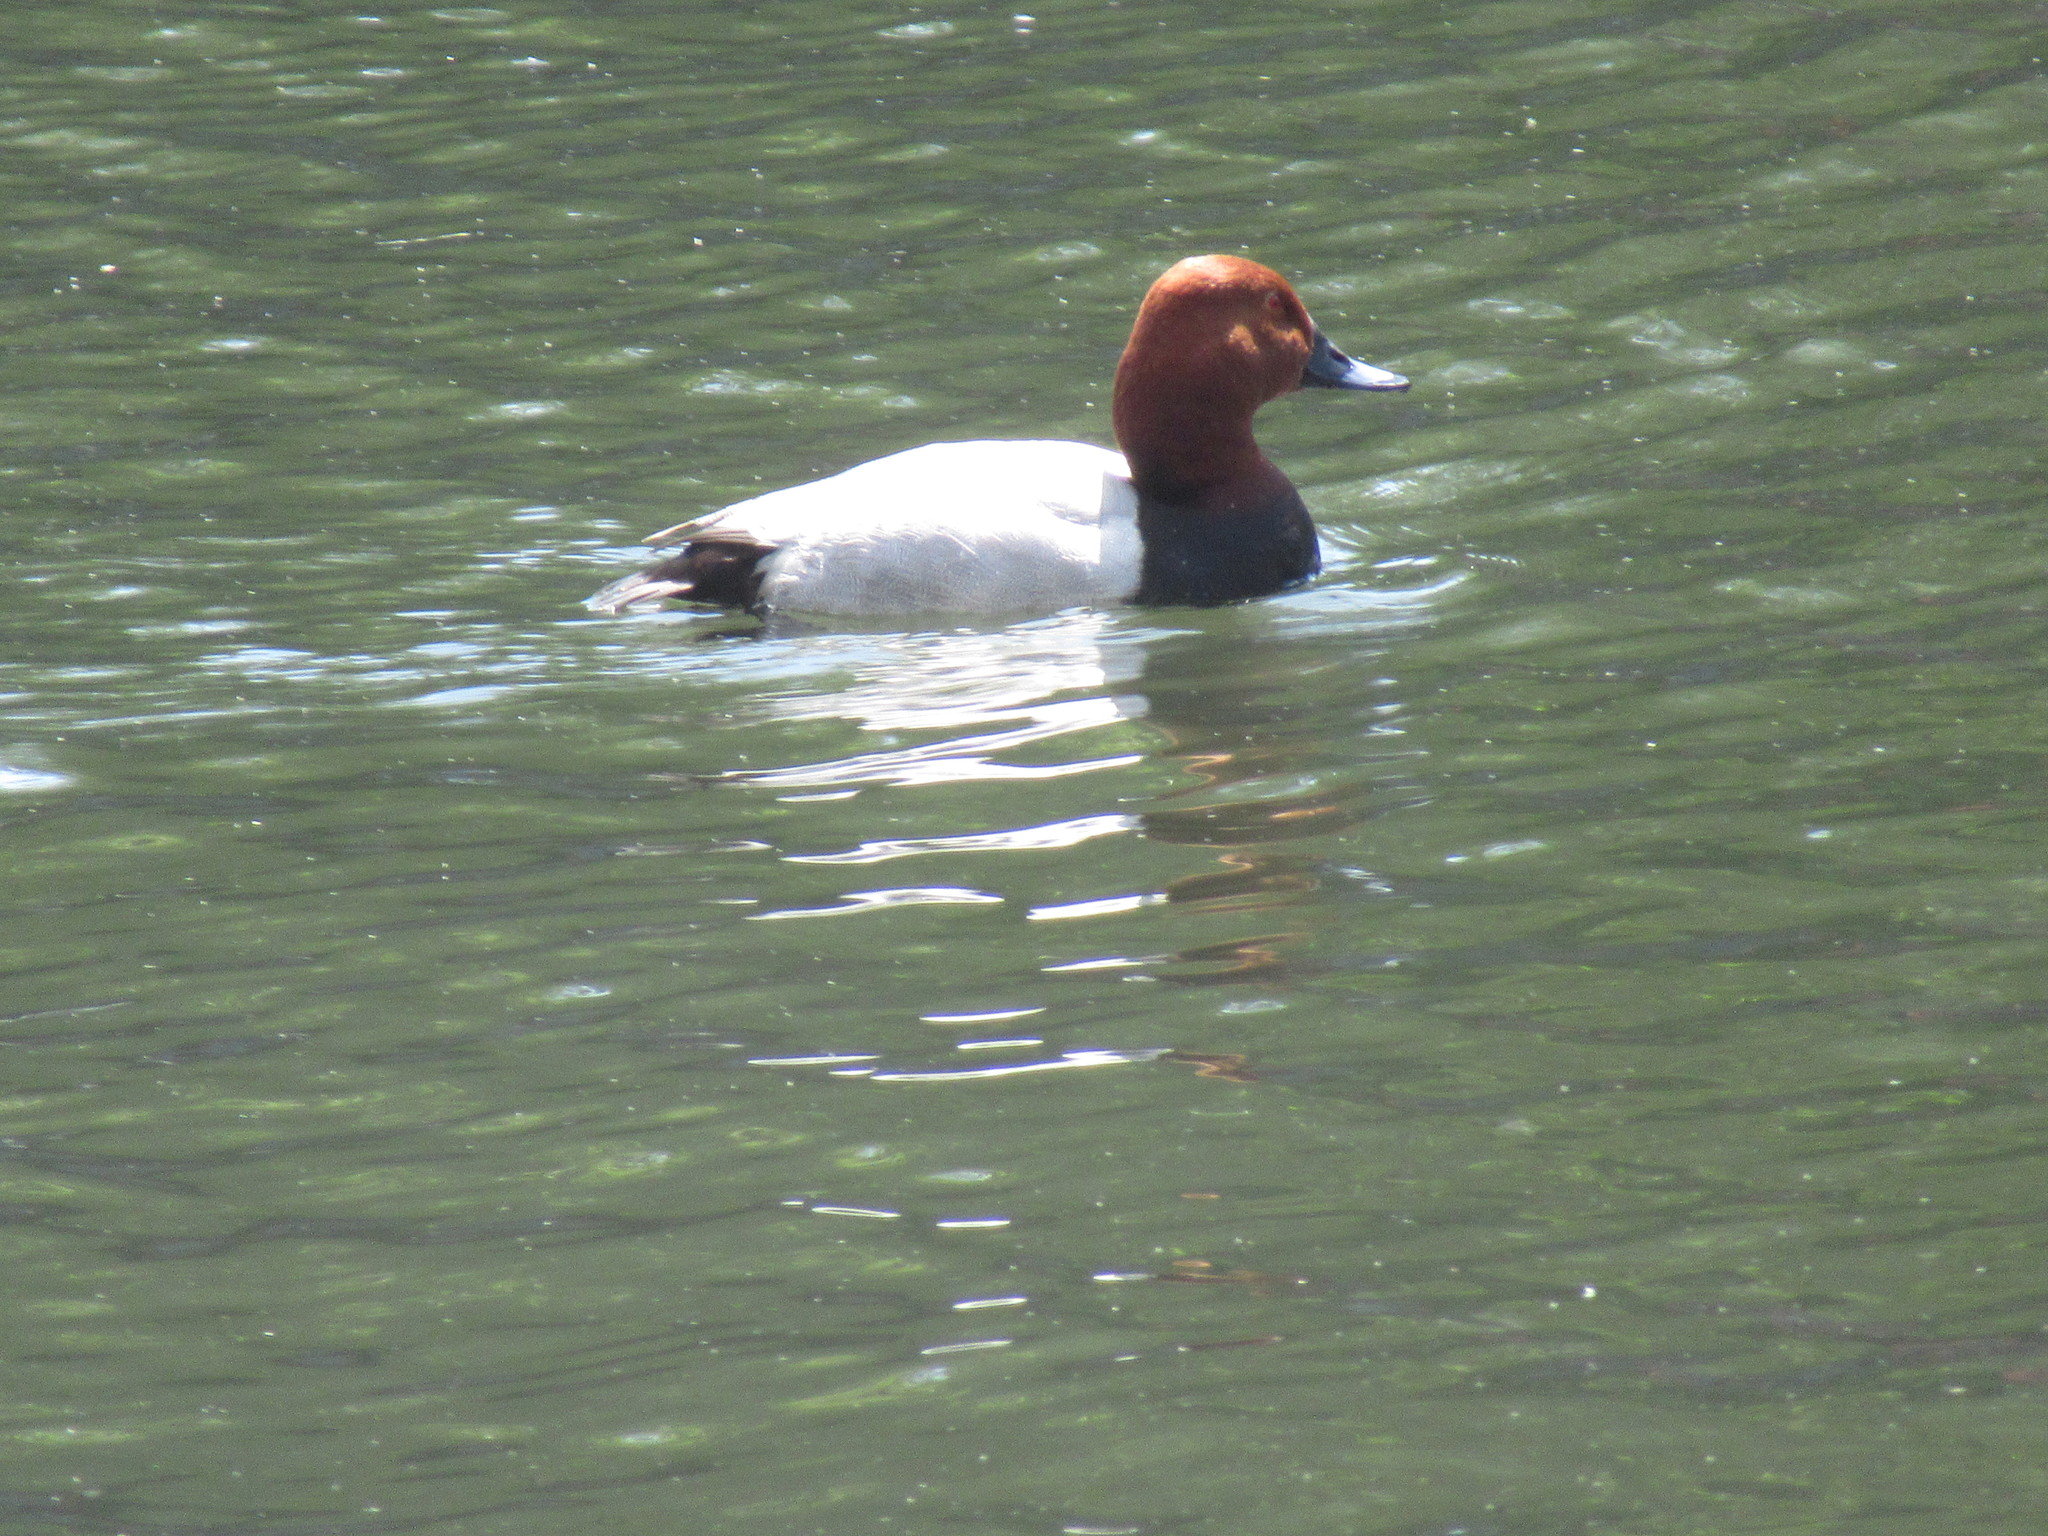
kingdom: Animalia
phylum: Chordata
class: Aves
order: Anseriformes
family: Anatidae
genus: Aythya
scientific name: Aythya ferina
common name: Common pochard
